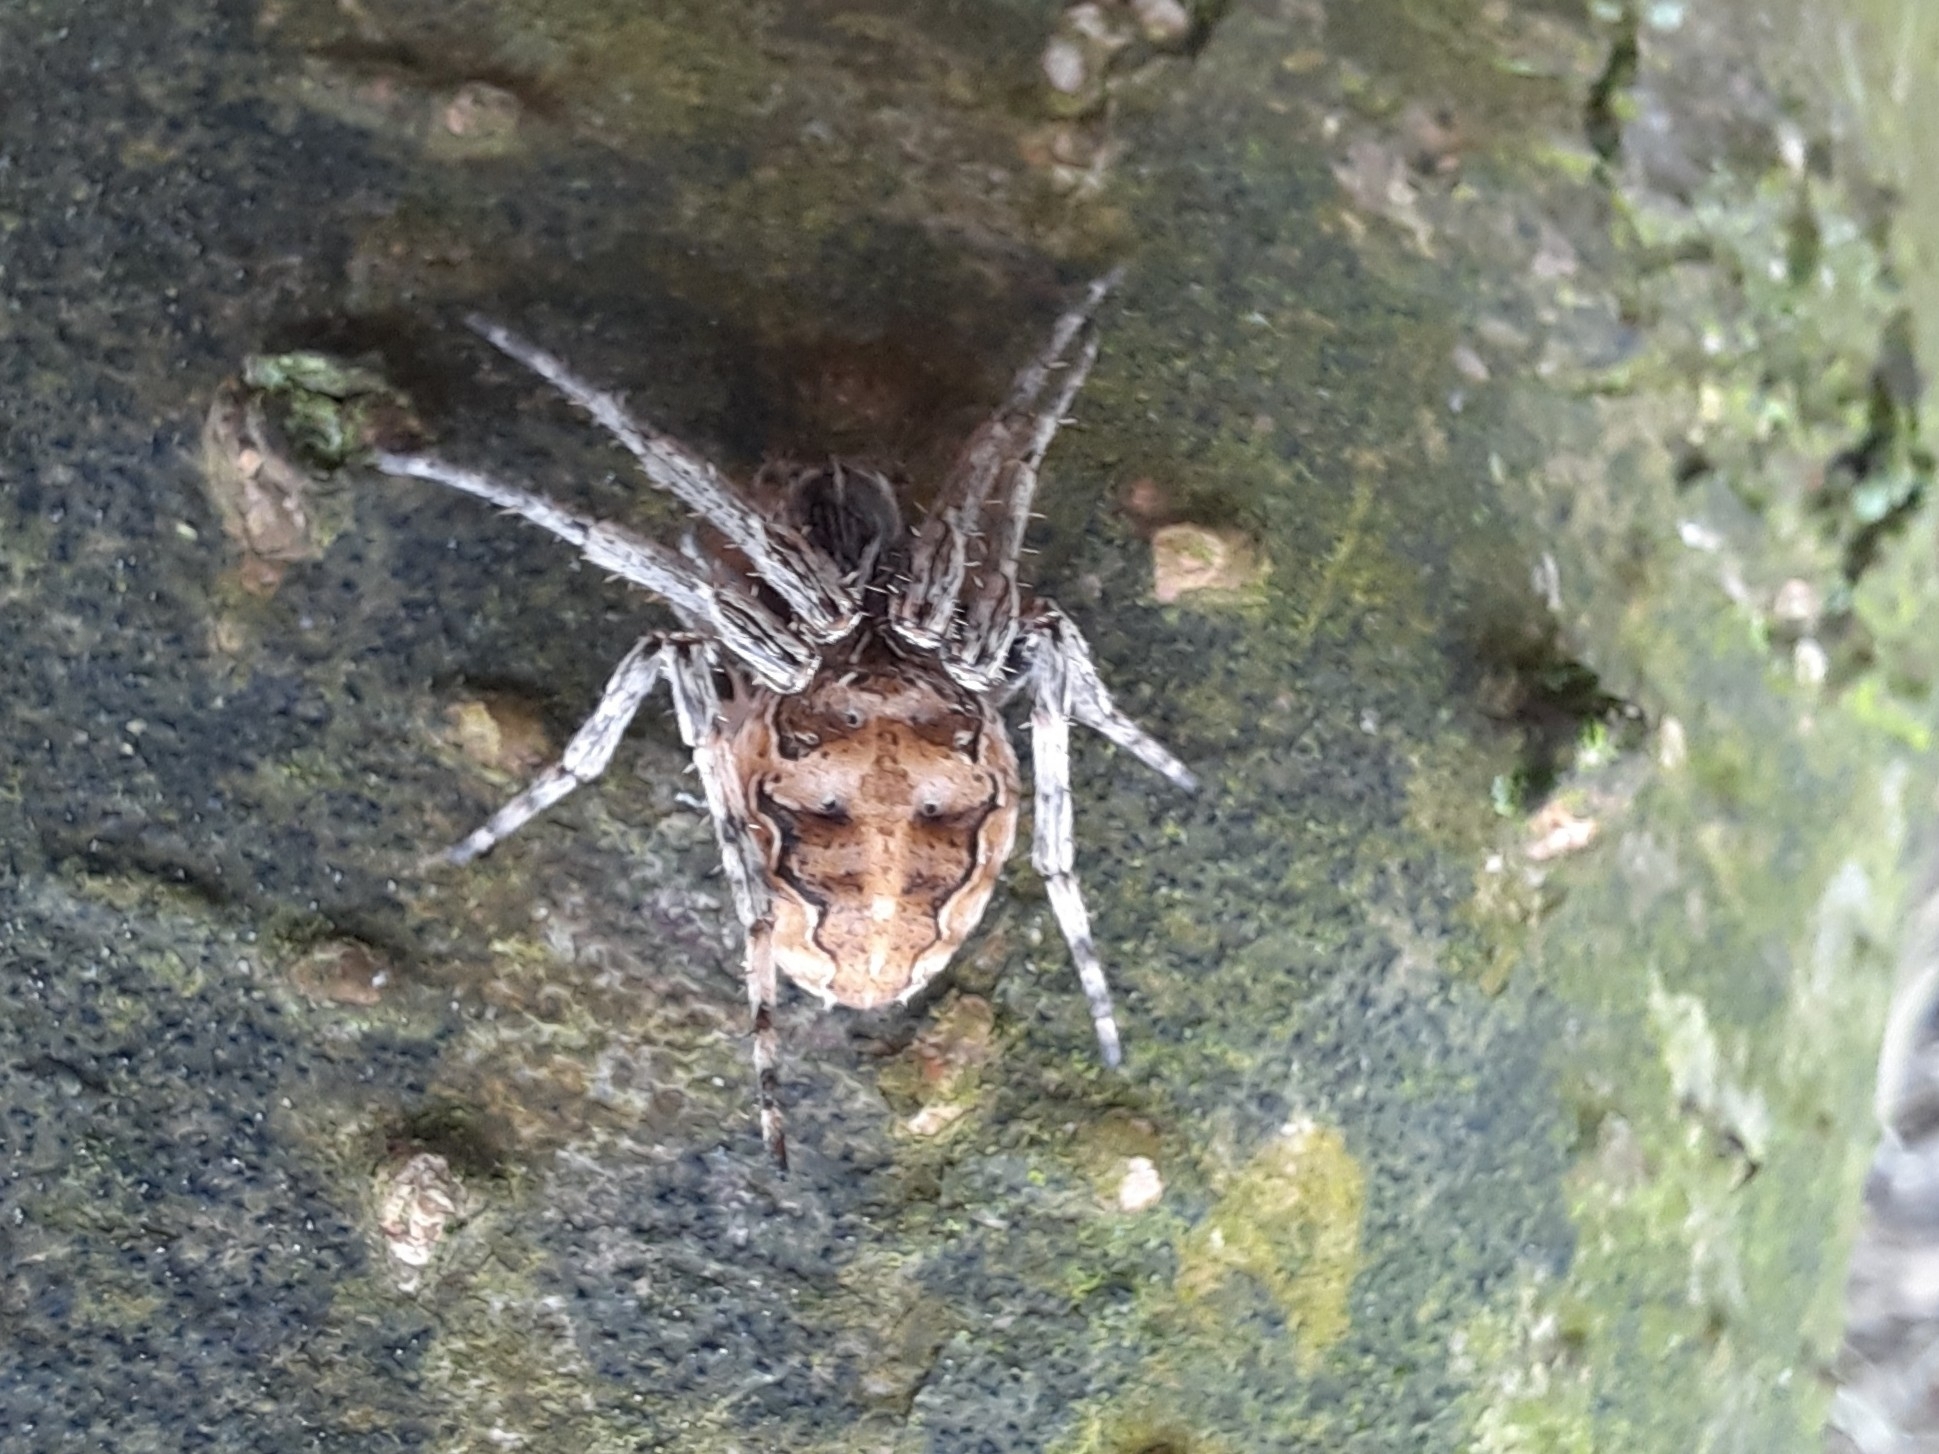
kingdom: Animalia
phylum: Arthropoda
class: Arachnida
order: Araneae
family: Araneidae
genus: Larinioides
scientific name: Larinioides sclopetarius
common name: Bridge orbweaver
